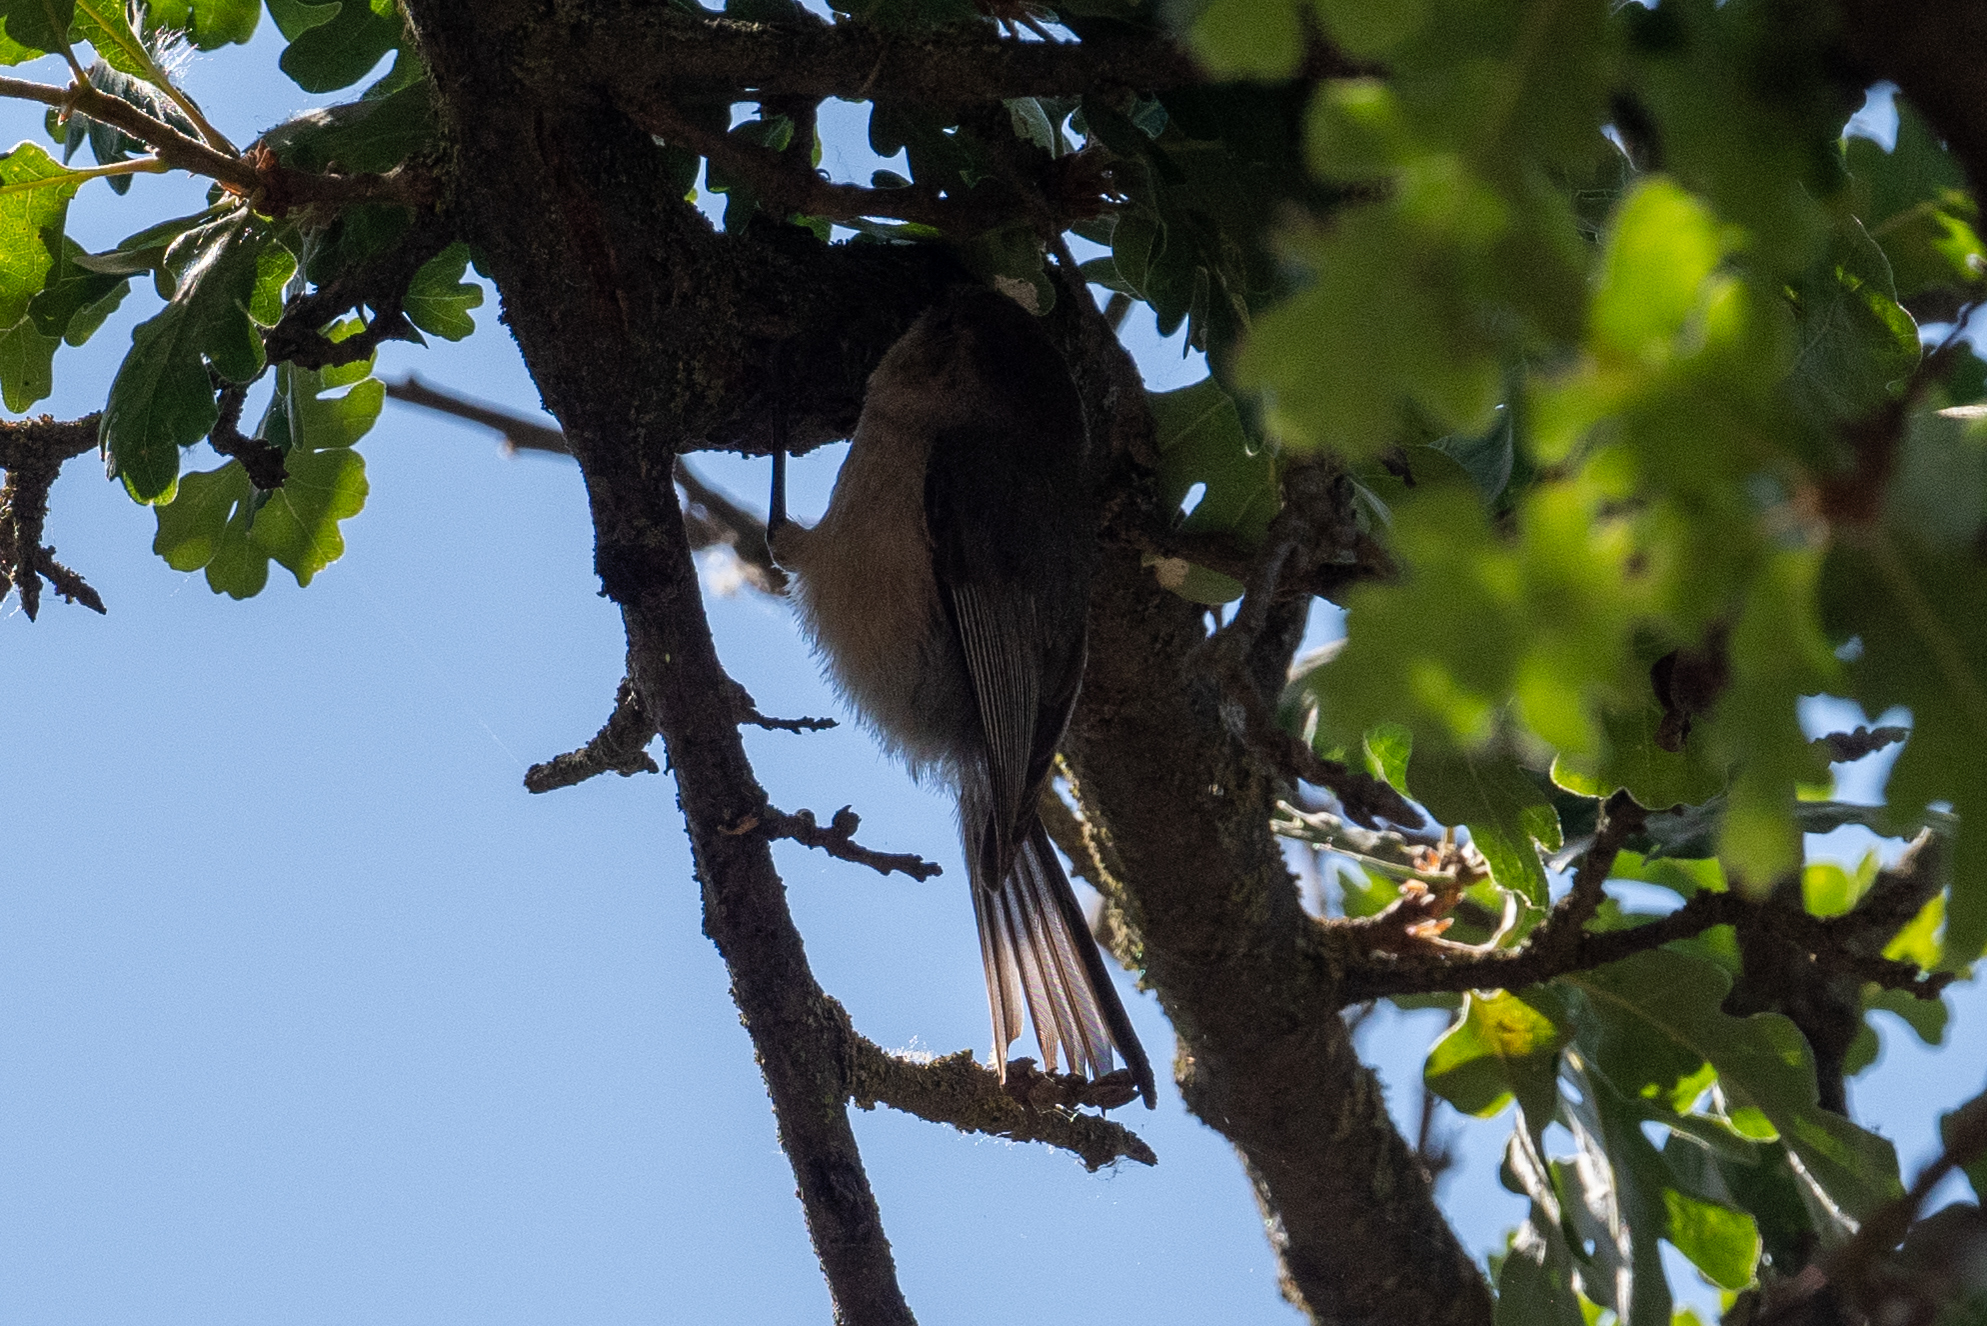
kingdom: Animalia
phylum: Chordata
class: Aves
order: Passeriformes
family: Aegithalidae
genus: Psaltriparus
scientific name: Psaltriparus minimus
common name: American bushtit
